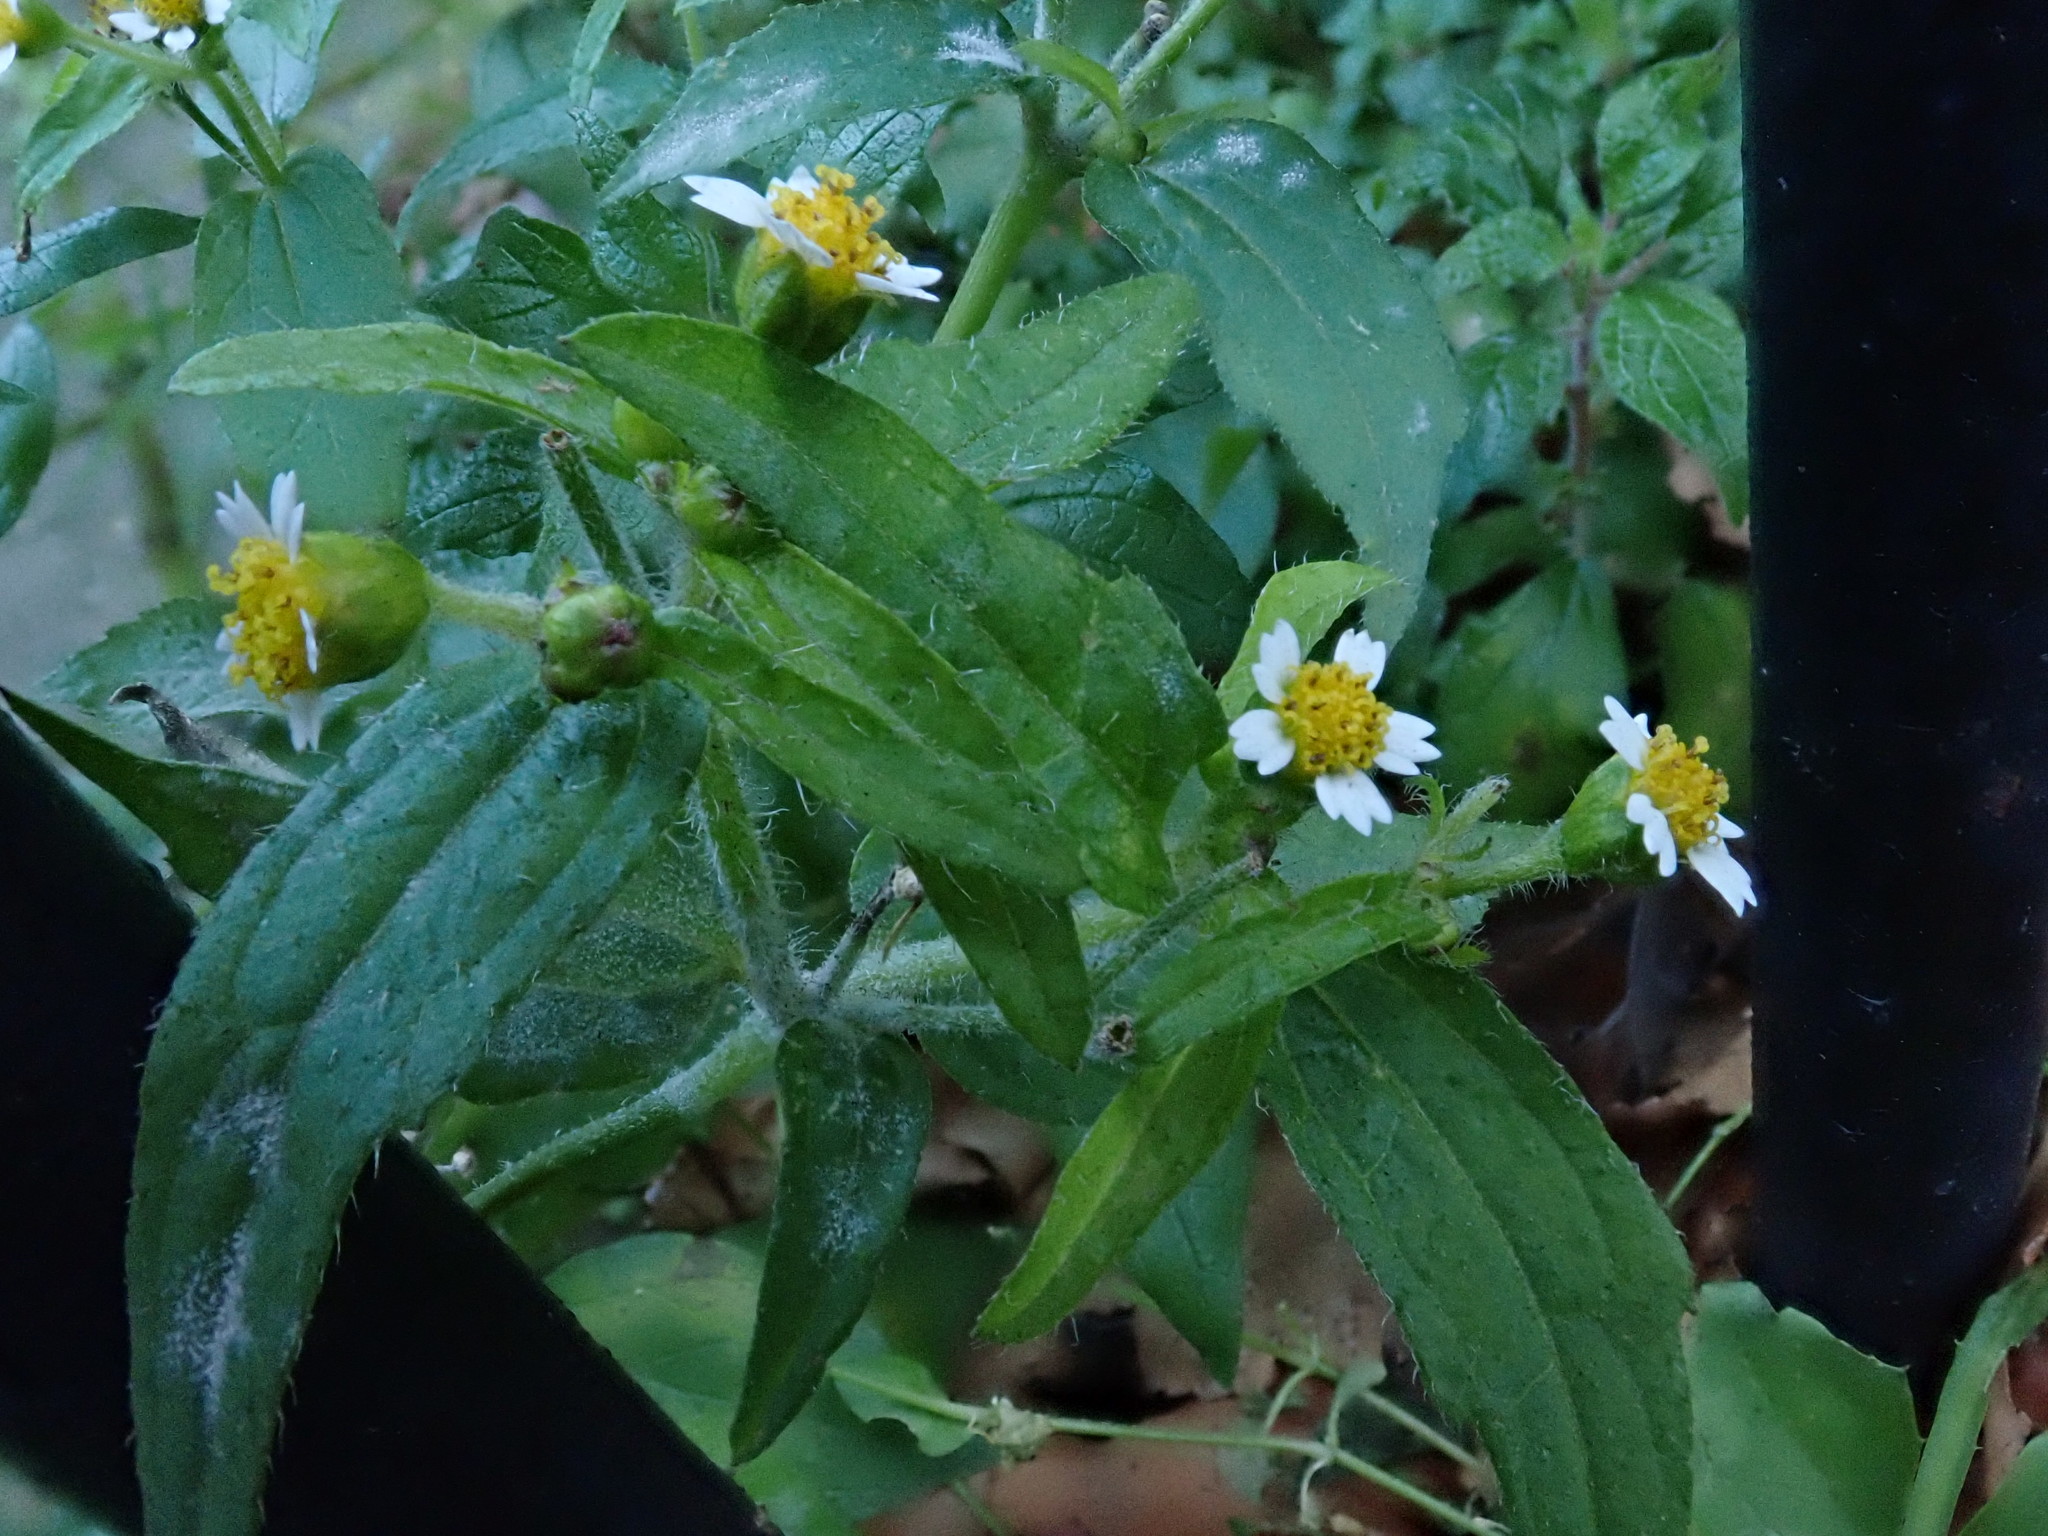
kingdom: Plantae
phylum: Tracheophyta
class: Magnoliopsida
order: Asterales
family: Asteraceae
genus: Galinsoga
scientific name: Galinsoga quadriradiata
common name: Shaggy soldier
